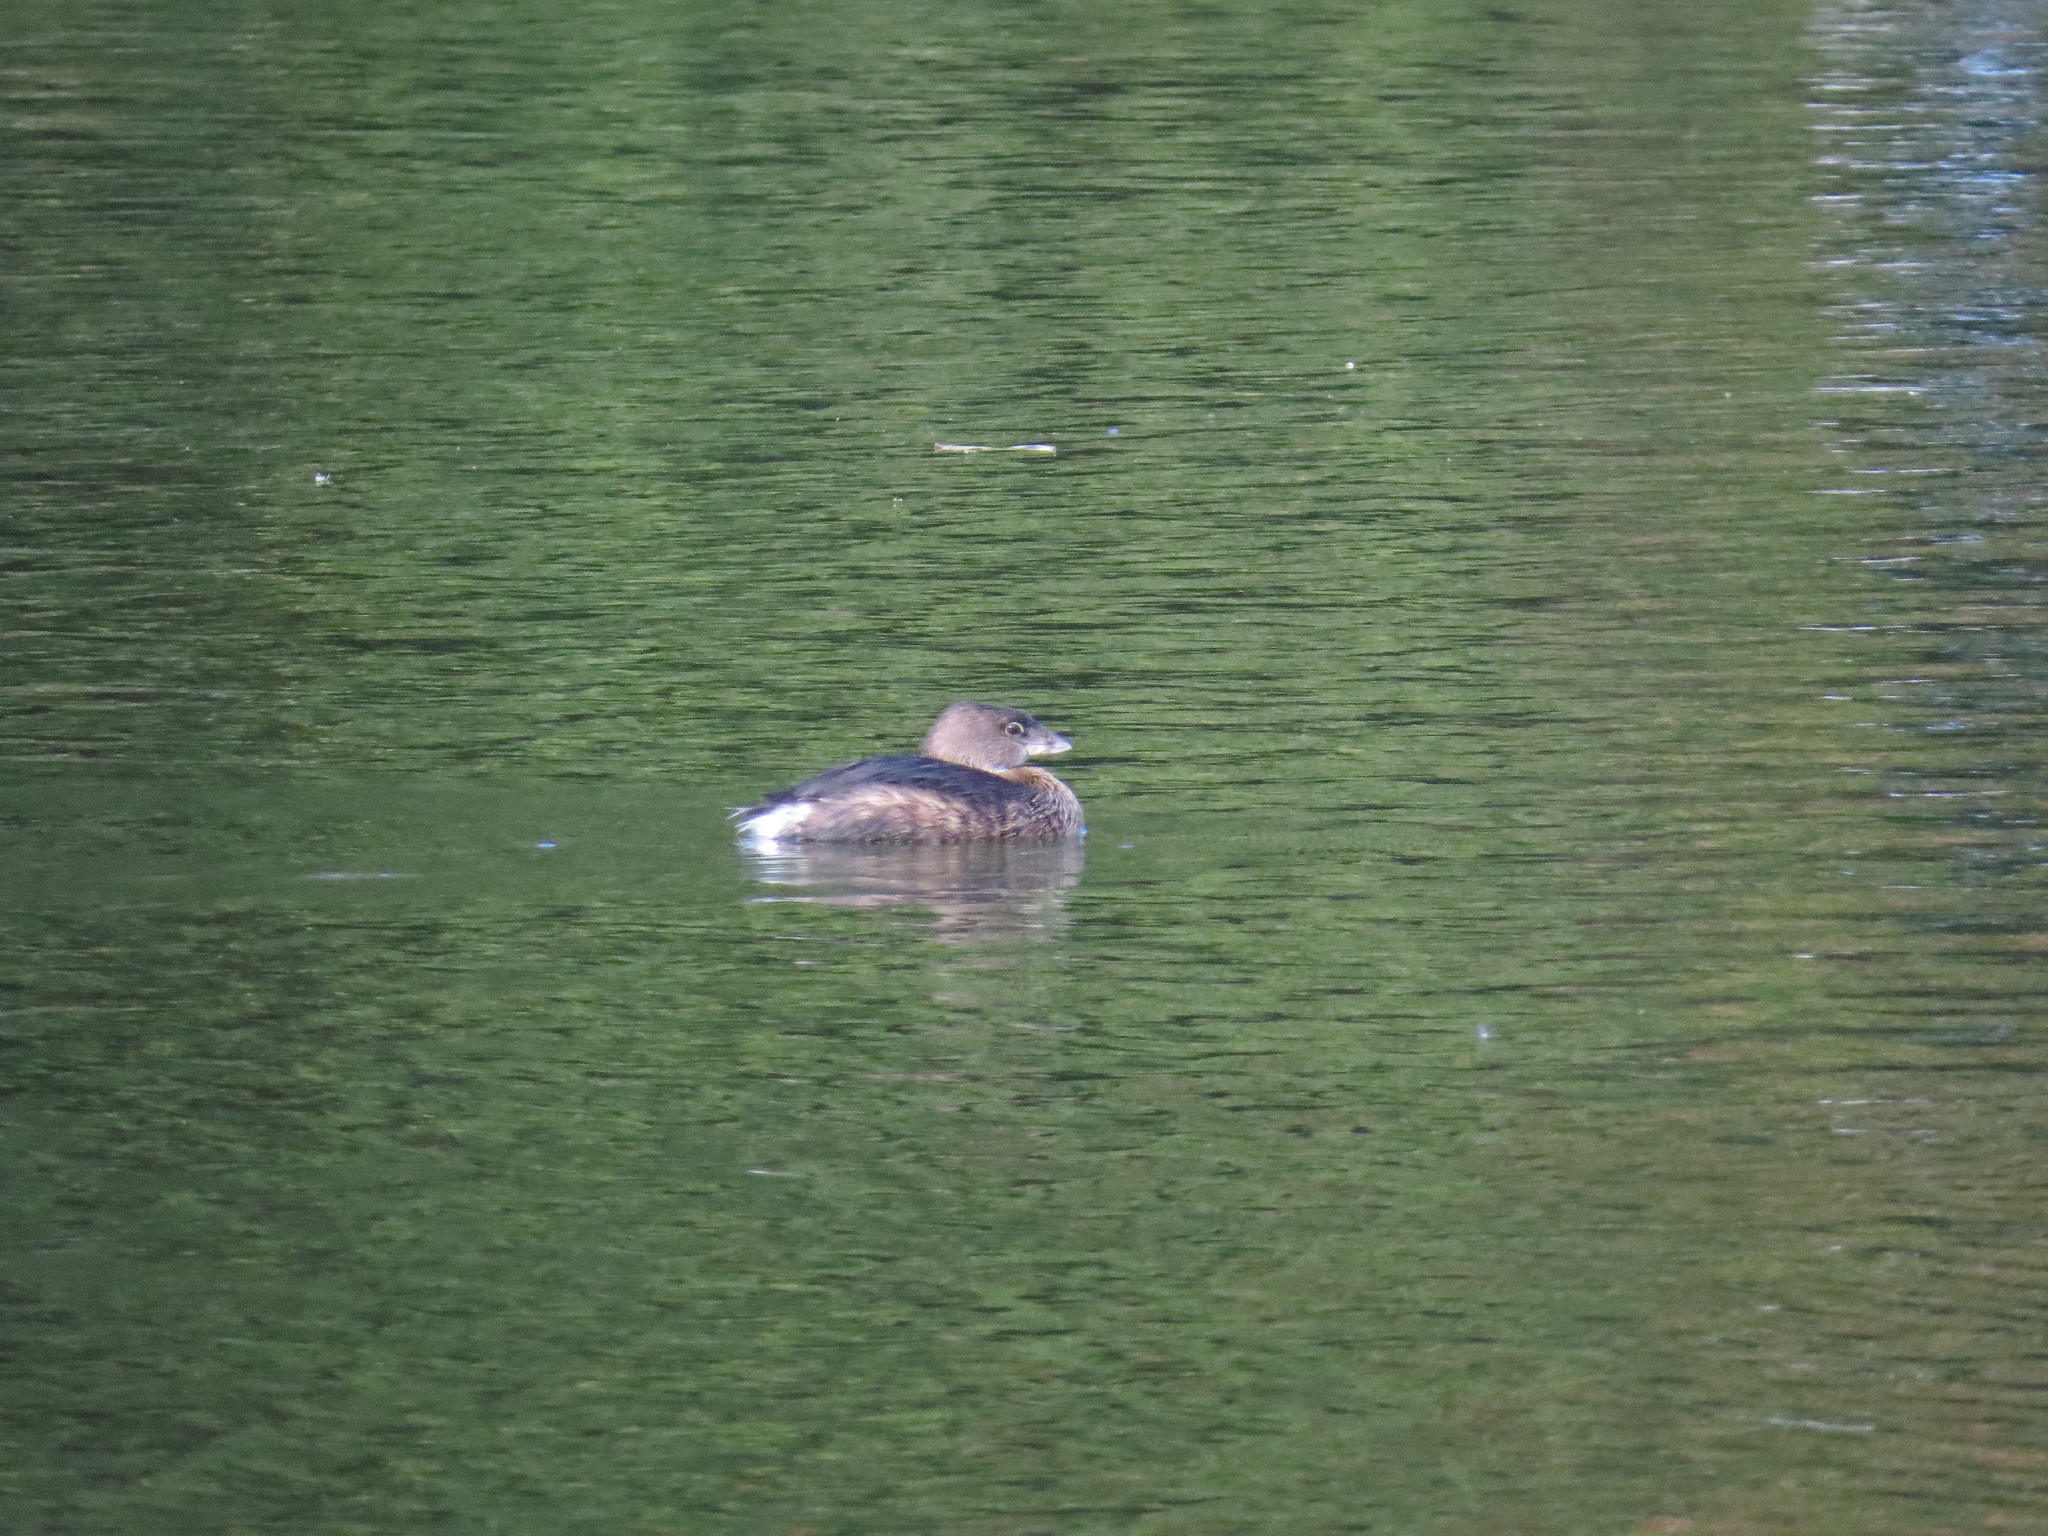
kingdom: Animalia
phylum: Chordata
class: Aves
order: Podicipediformes
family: Podicipedidae
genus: Podilymbus
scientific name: Podilymbus podiceps
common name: Pied-billed grebe
